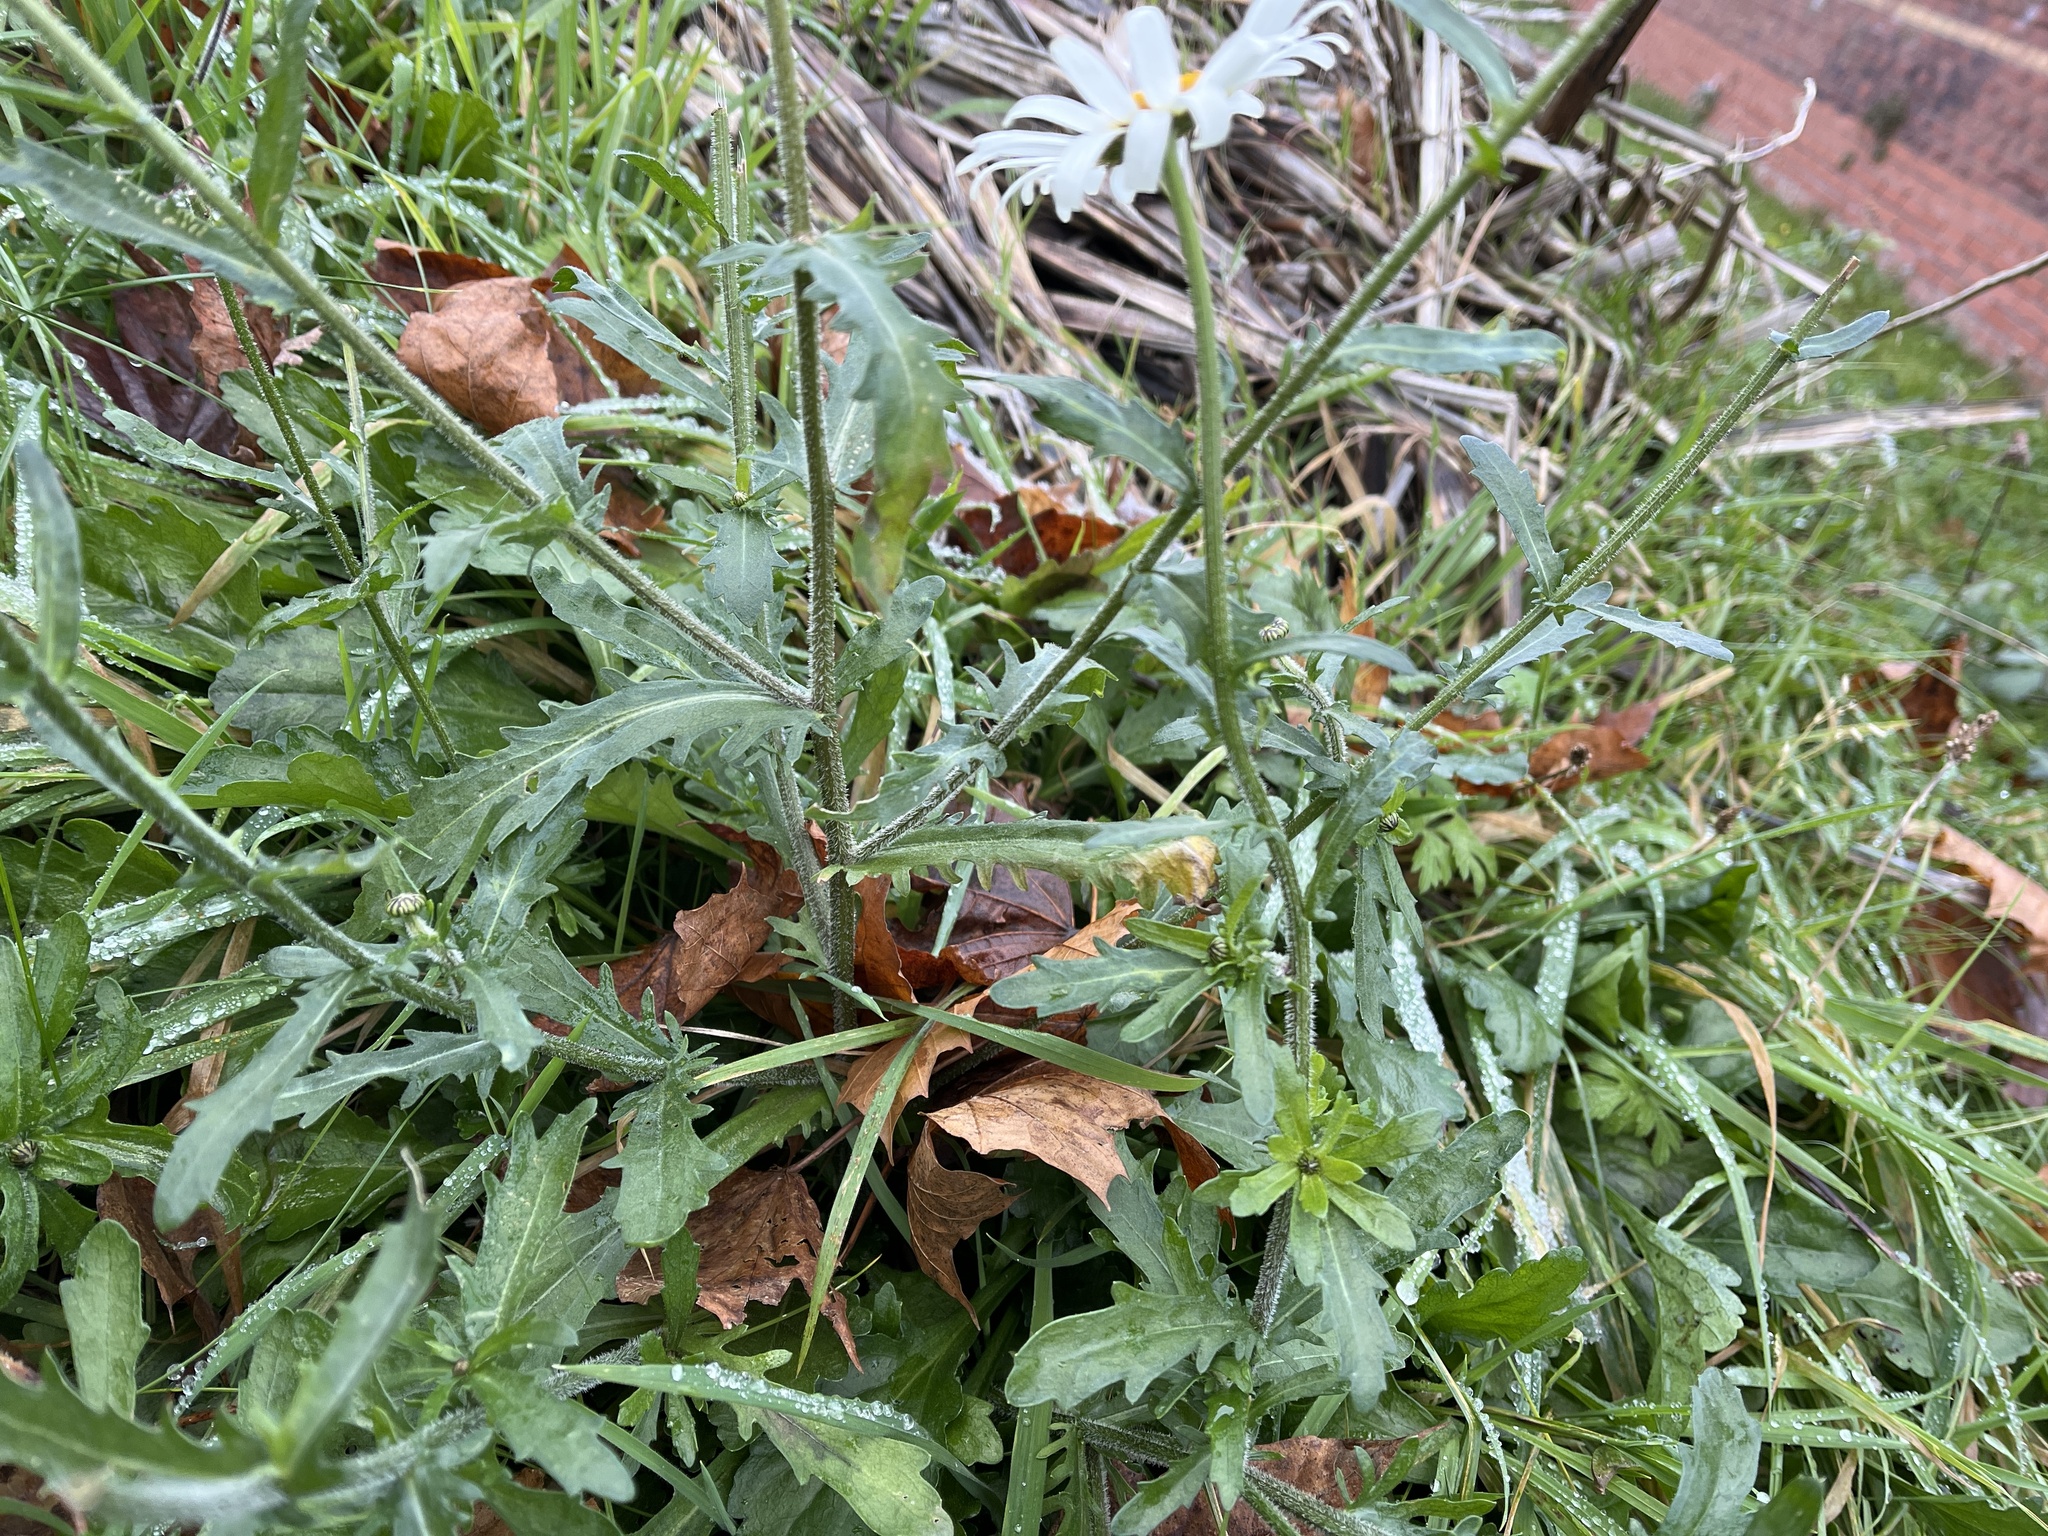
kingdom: Plantae
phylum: Tracheophyta
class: Magnoliopsida
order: Asterales
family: Asteraceae
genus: Leucanthemum
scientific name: Leucanthemum vulgare
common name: Oxeye daisy
